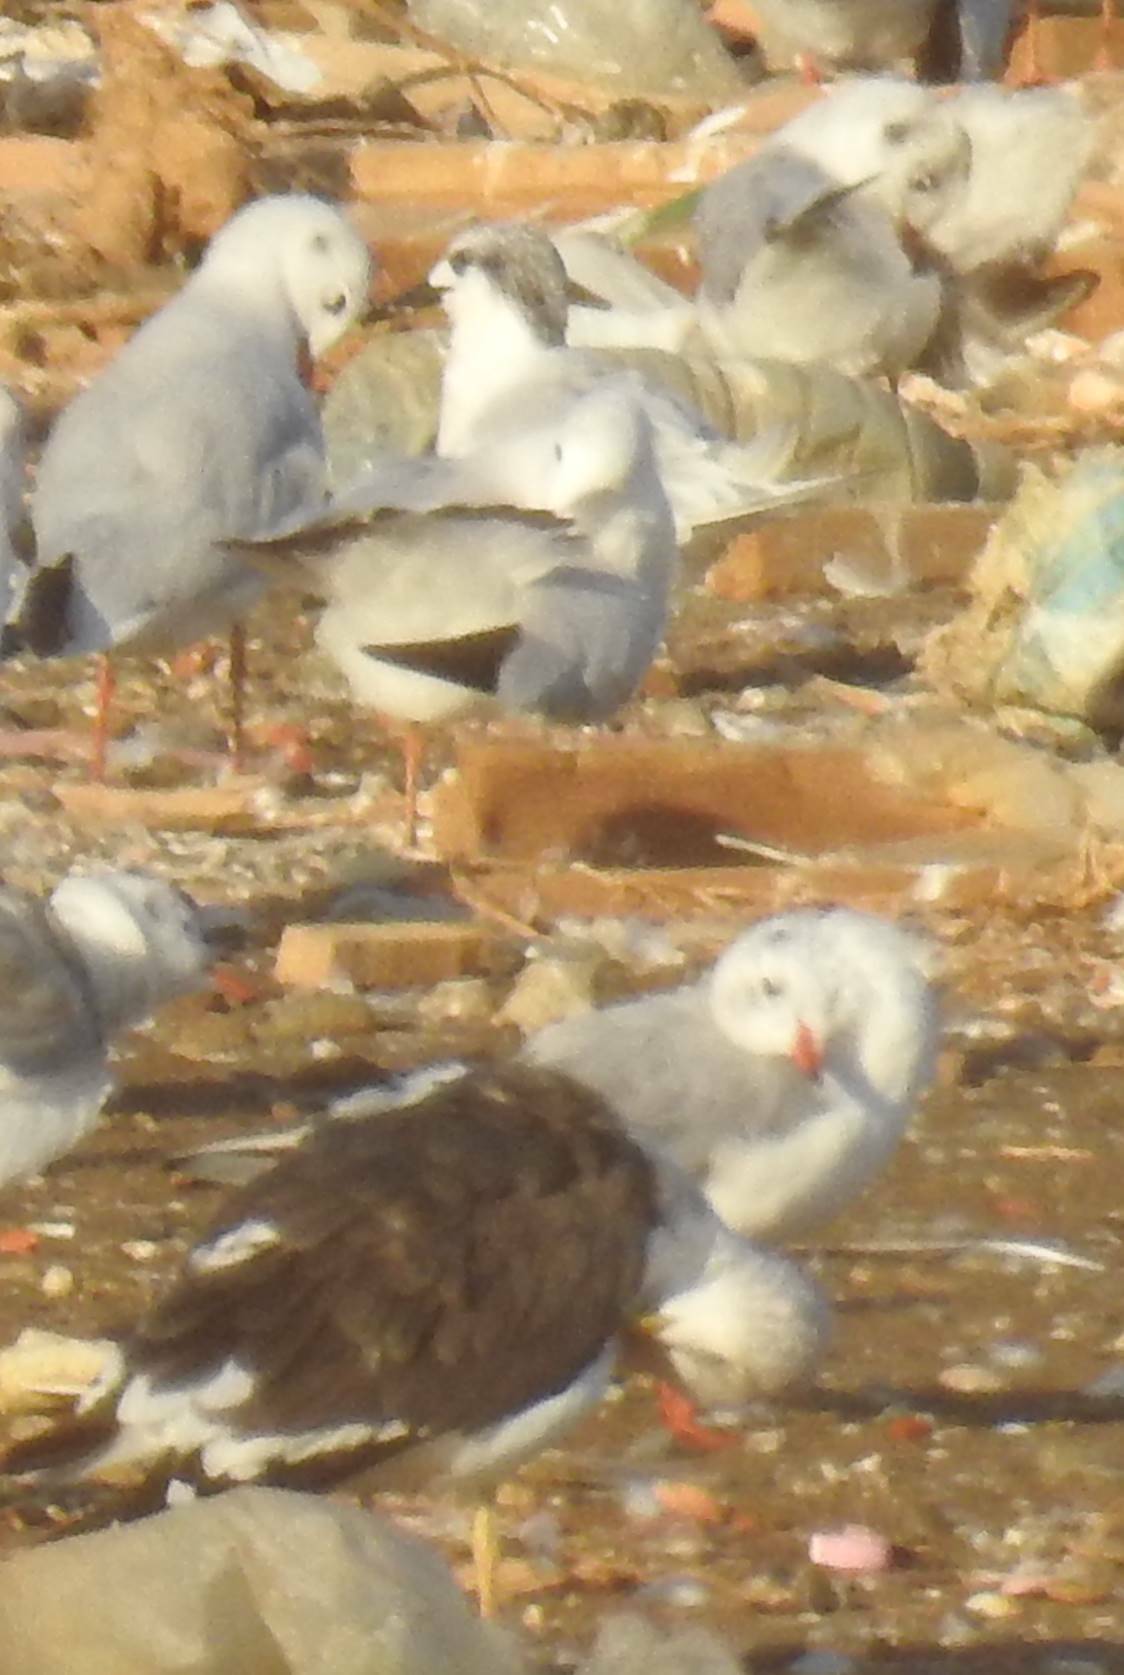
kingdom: Animalia
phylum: Chordata
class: Aves
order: Charadriiformes
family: Laridae
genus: Larus
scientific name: Larus fuscus
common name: Lesser black-backed gull
